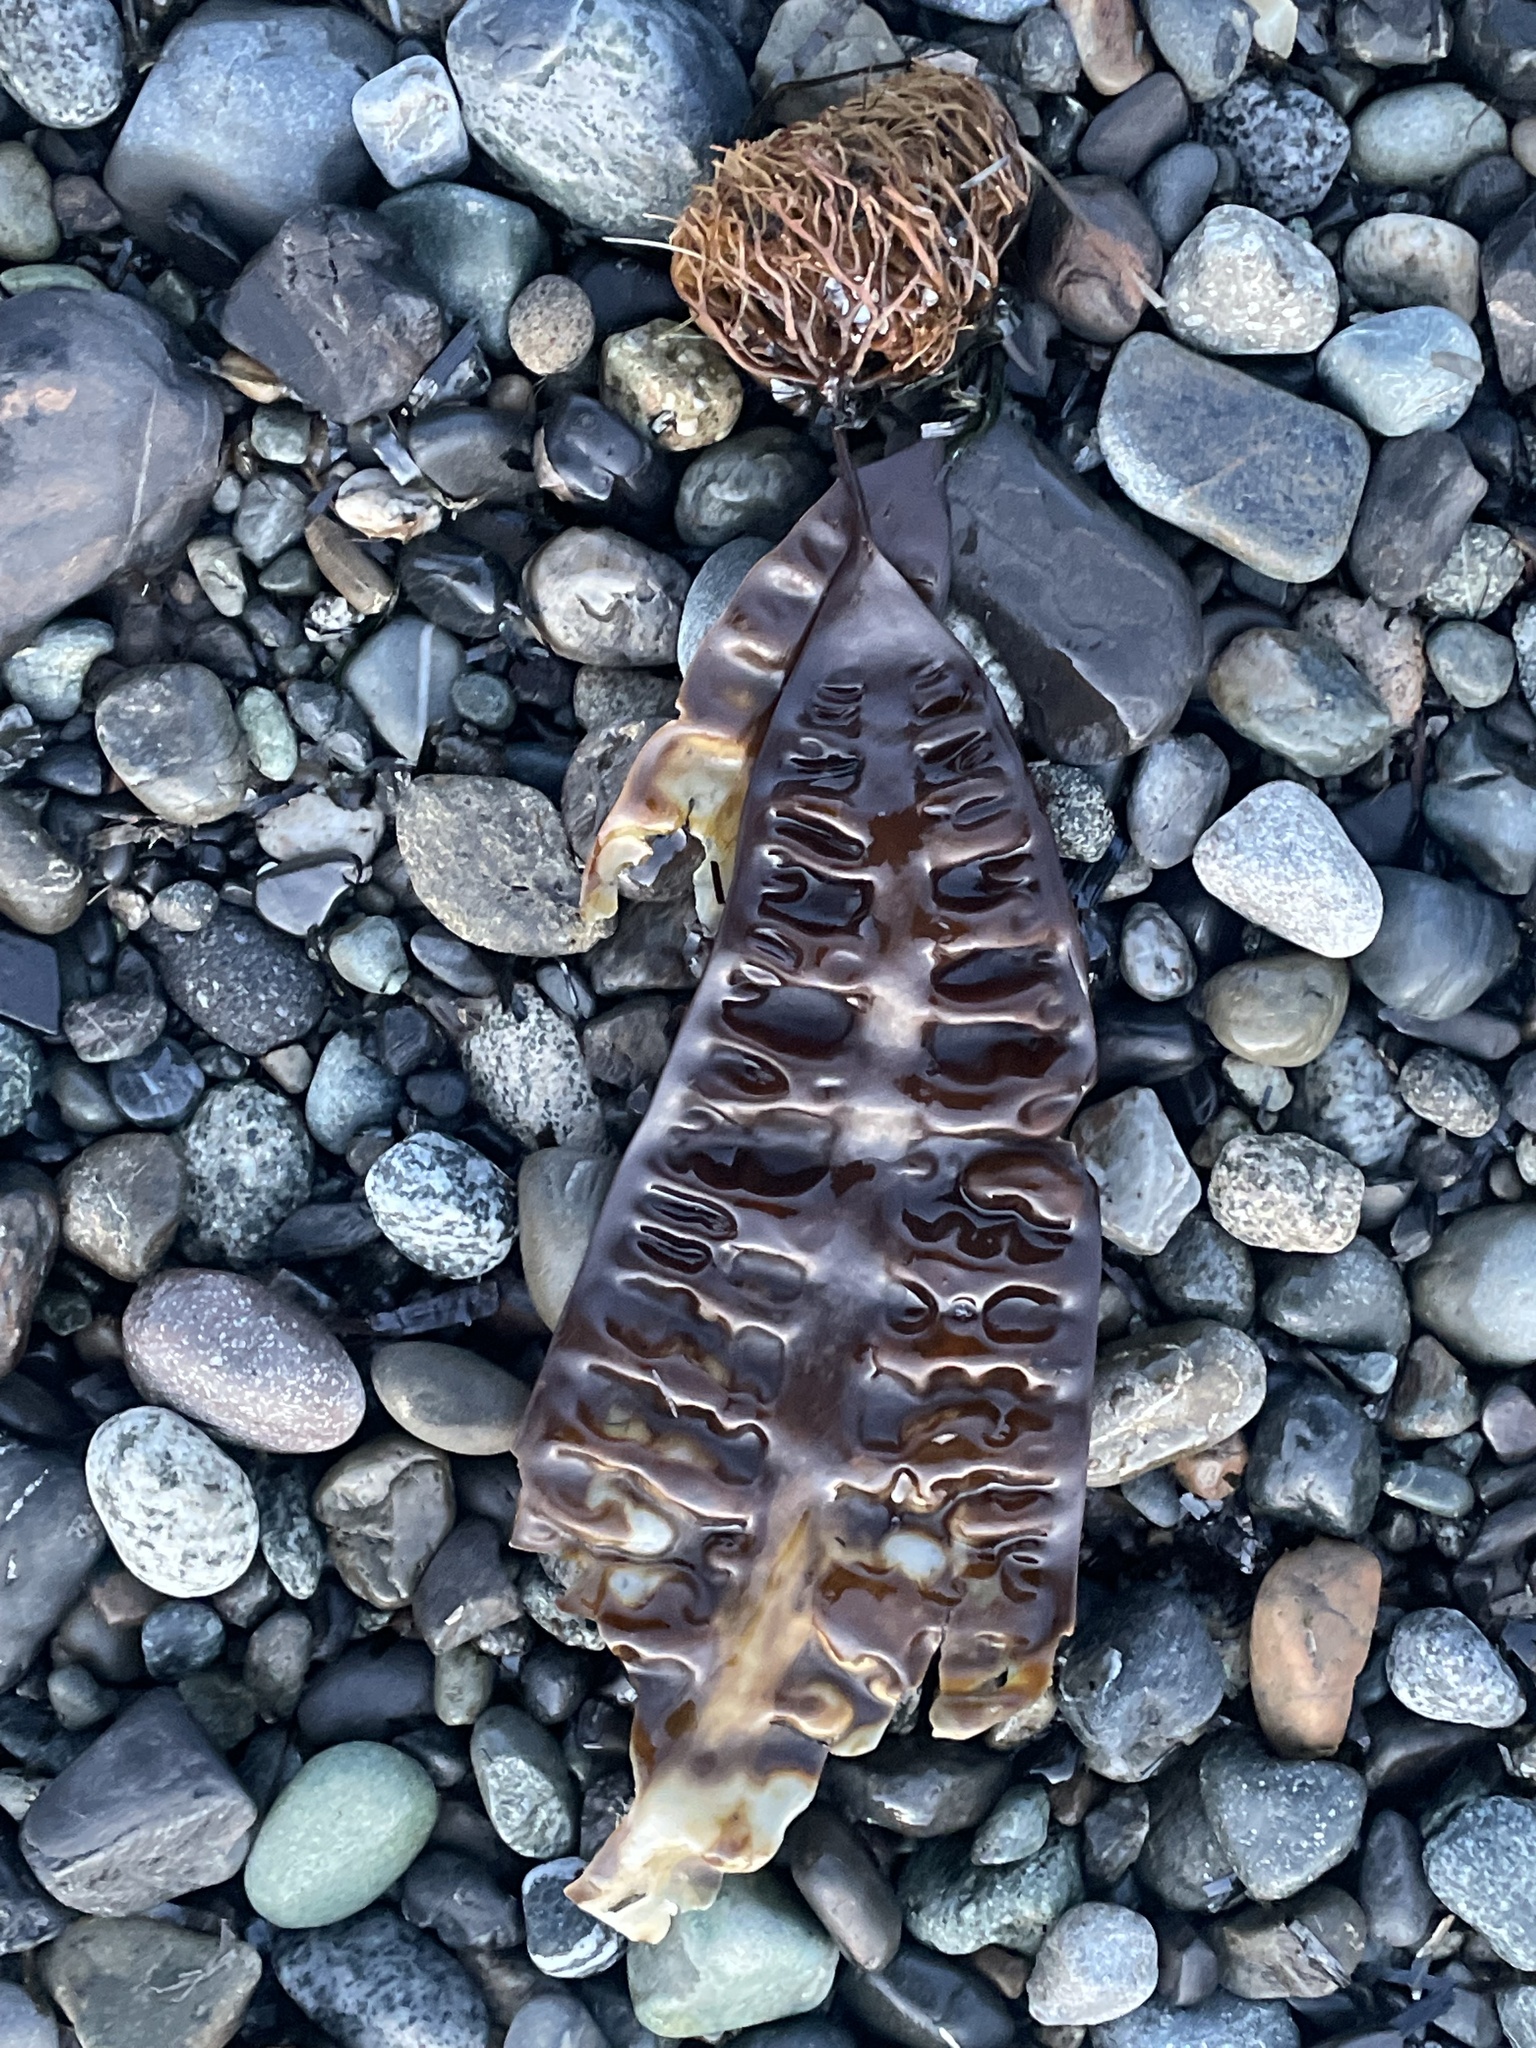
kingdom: Chromista
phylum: Ochrophyta
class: Phaeophyceae
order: Laminariales
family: Laminariaceae
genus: Saccharina
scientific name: Saccharina latissima
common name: Poor man's weather glass
